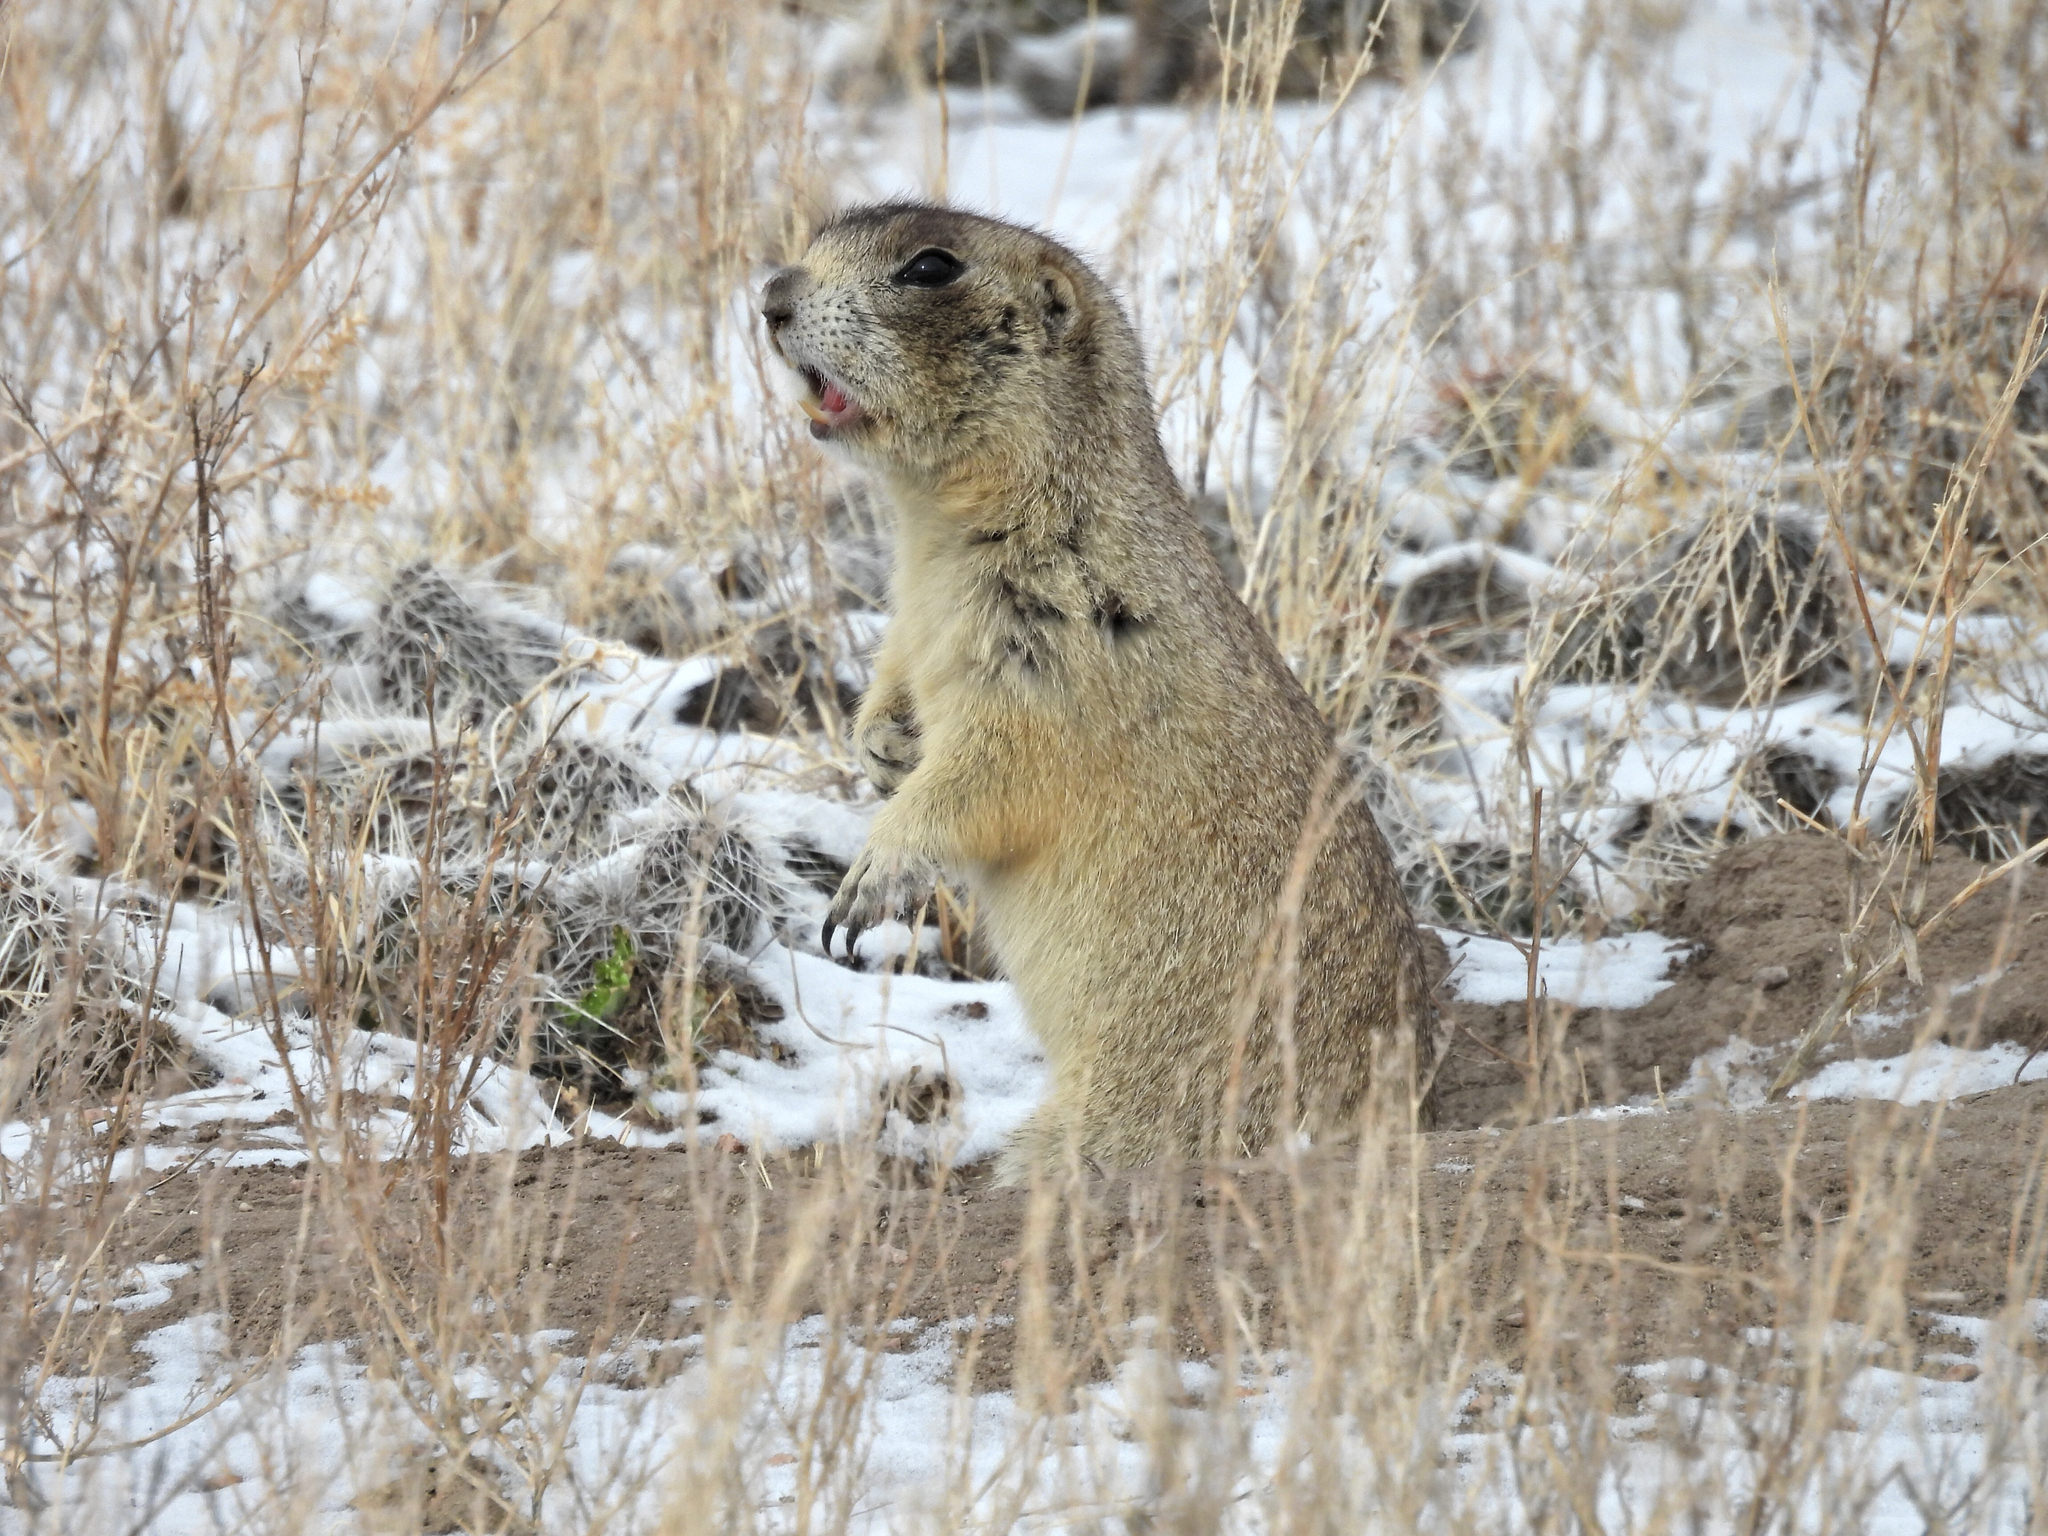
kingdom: Animalia
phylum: Chordata
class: Mammalia
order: Rodentia
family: Sciuridae
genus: Cynomys
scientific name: Cynomys leucurus
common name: White-tailed prairie dog
